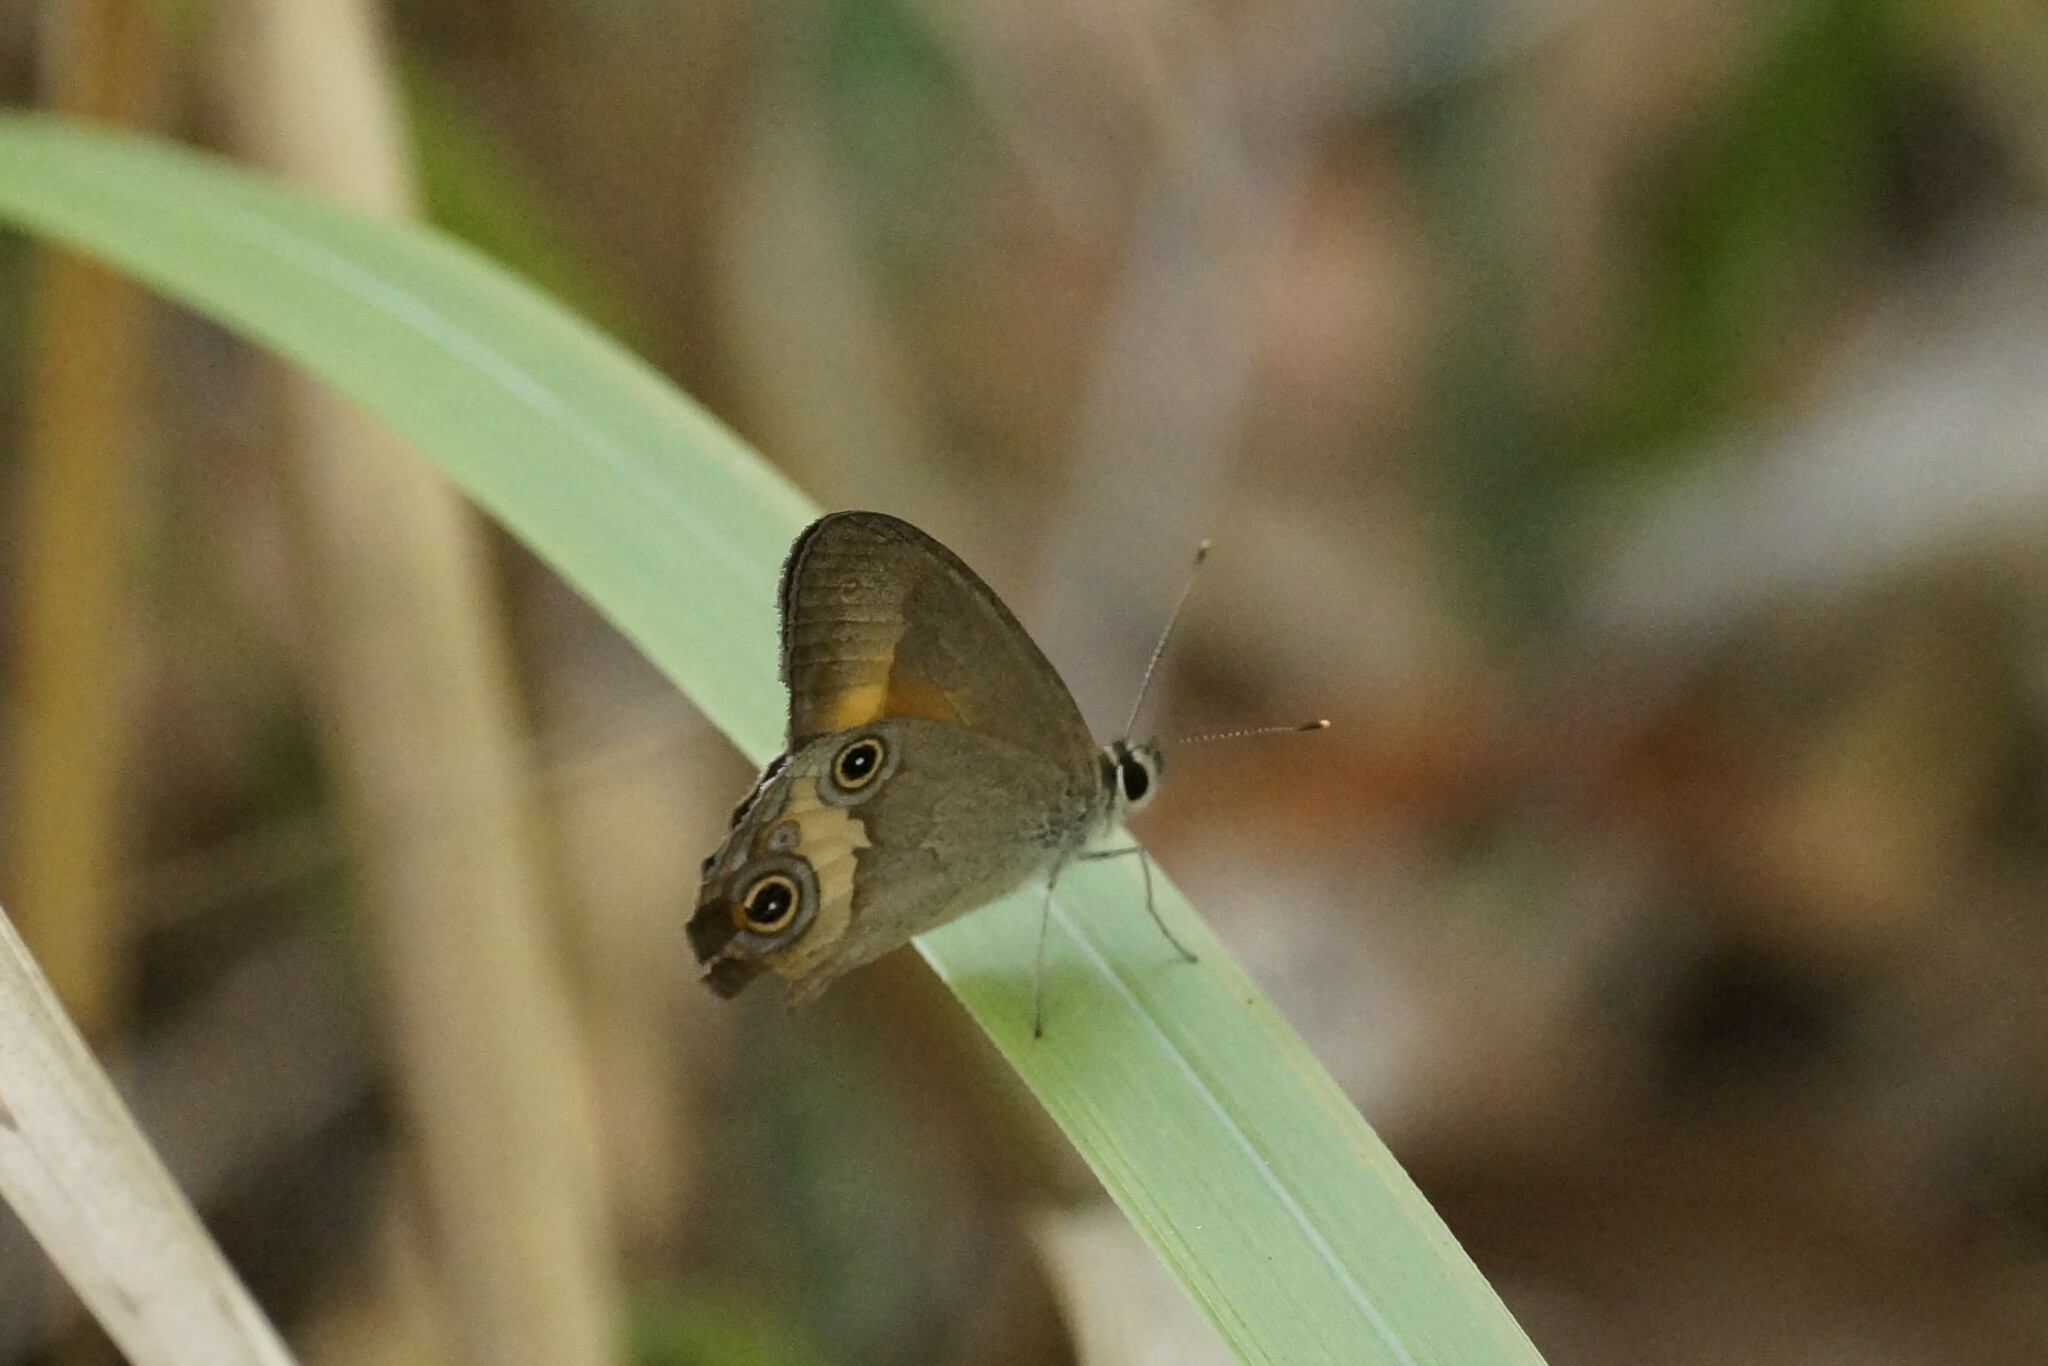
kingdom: Animalia
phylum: Arthropoda
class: Insecta
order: Lepidoptera
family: Nymphalidae
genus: Hypocysta
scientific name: Hypocysta irius
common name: Orange-streaked ringlet
